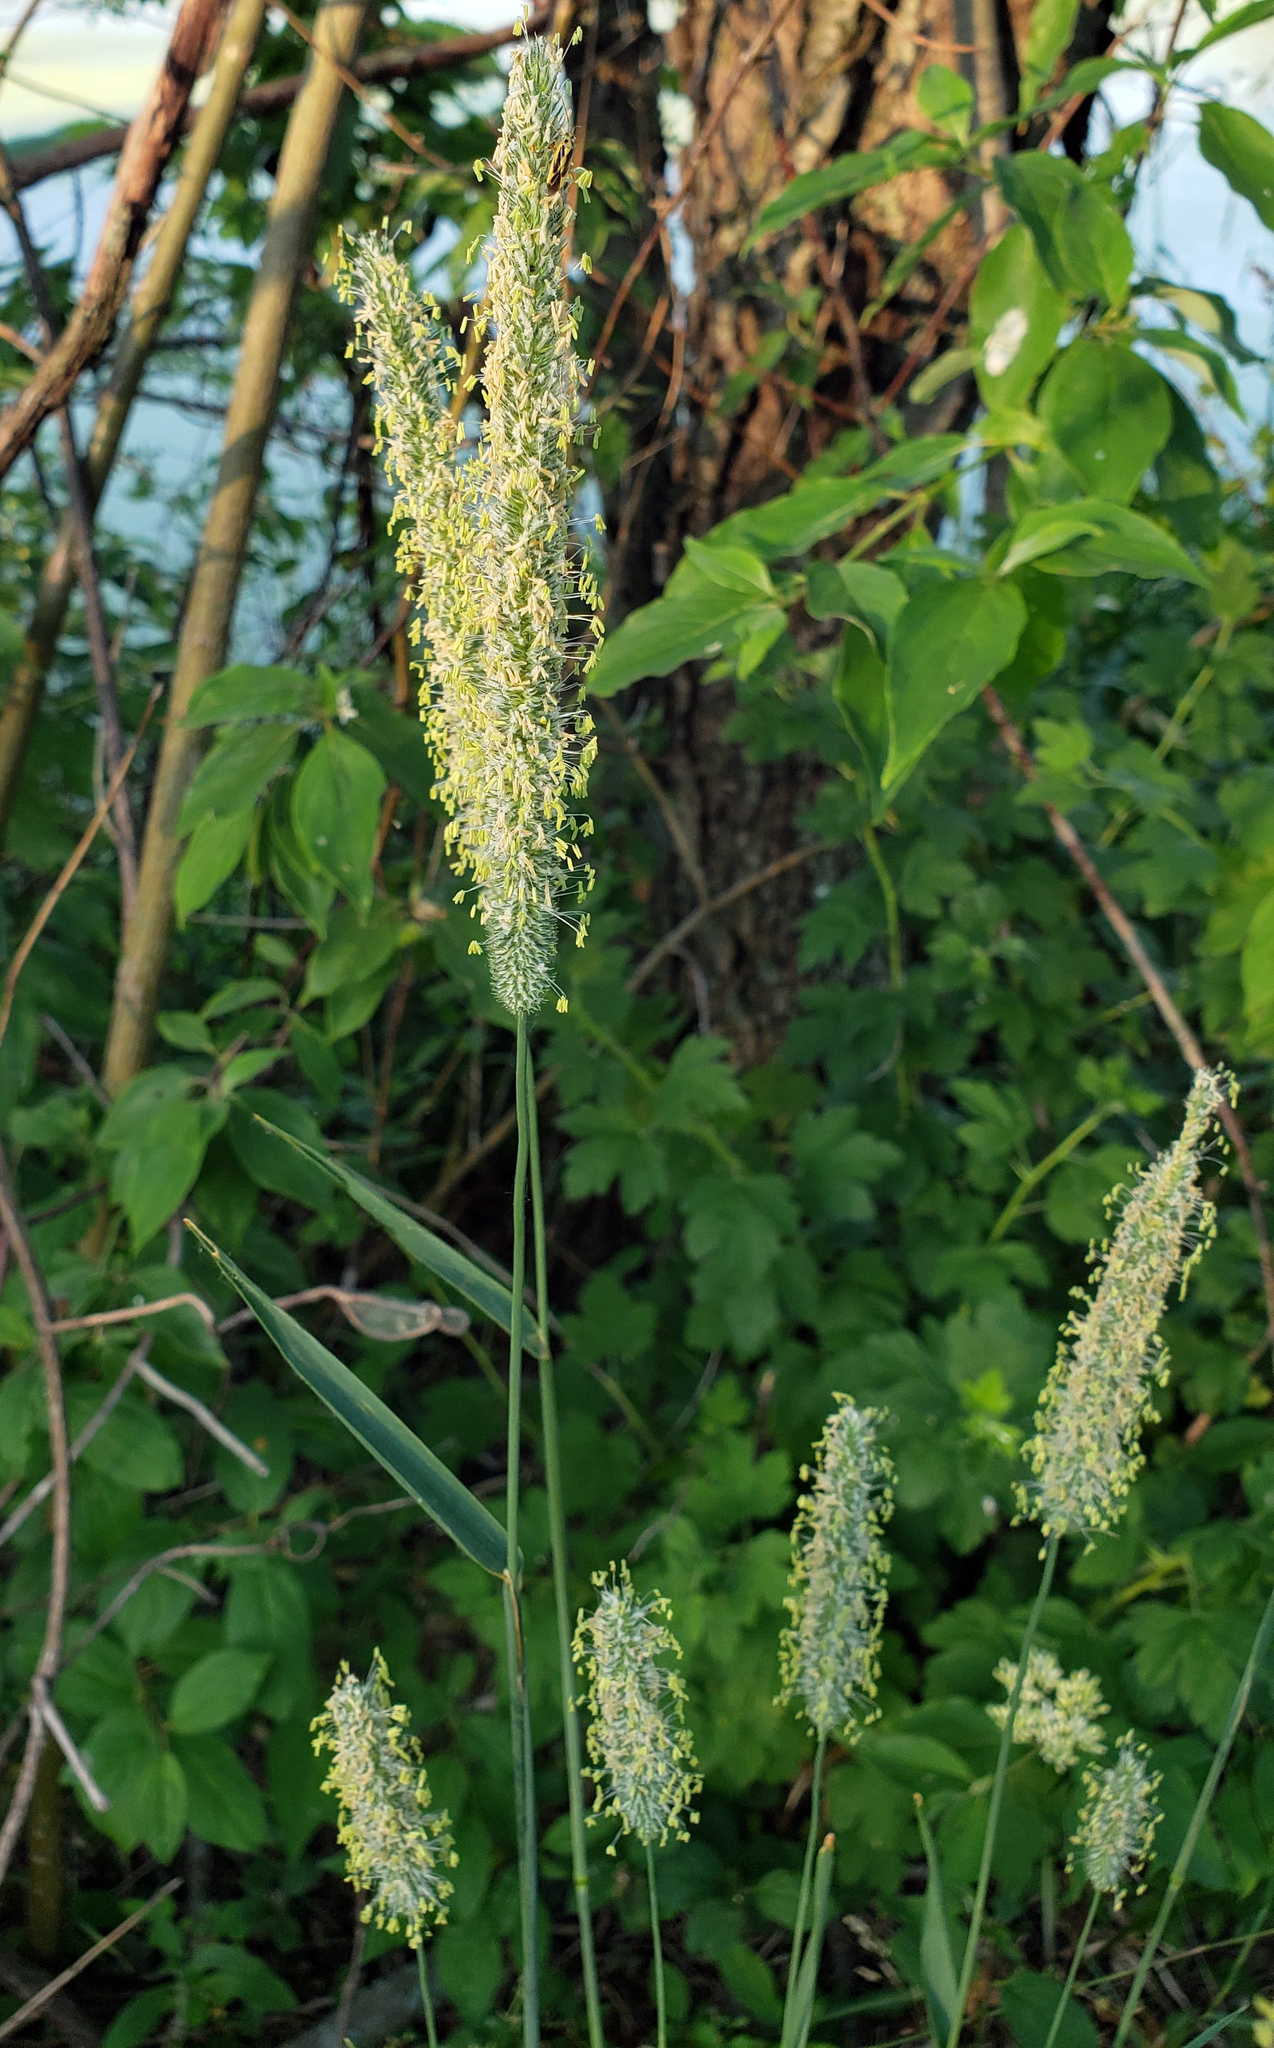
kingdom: Plantae
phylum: Tracheophyta
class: Liliopsida
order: Poales
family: Poaceae
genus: Phleum
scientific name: Phleum pratense
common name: Timothy grass
